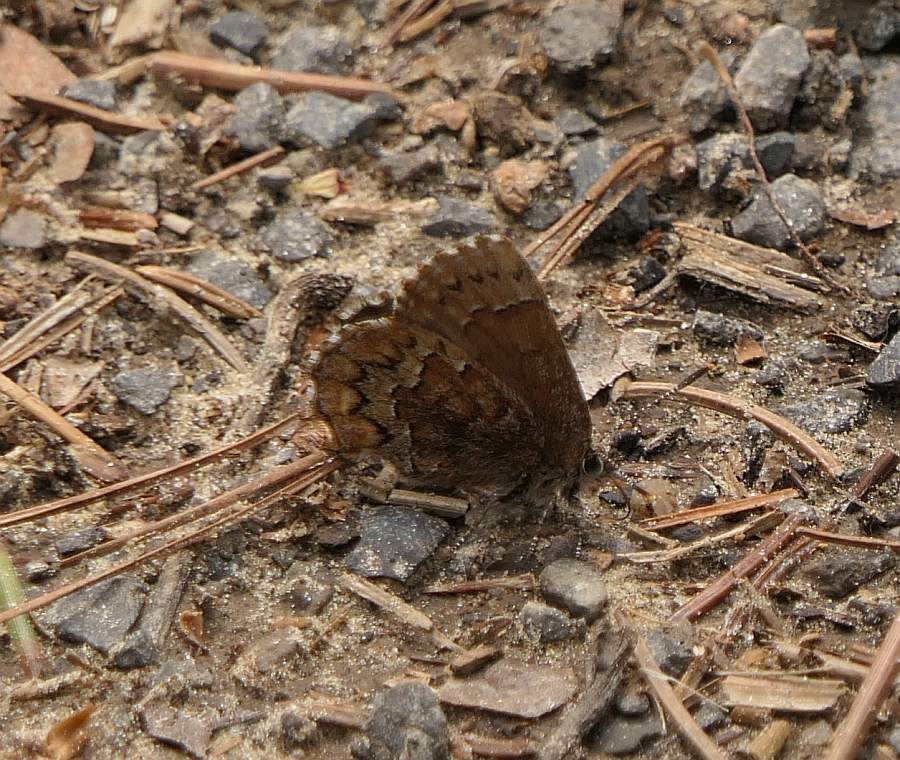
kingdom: Animalia
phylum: Arthropoda
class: Insecta
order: Lepidoptera
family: Lycaenidae
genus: Incisalia
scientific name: Incisalia niphon
